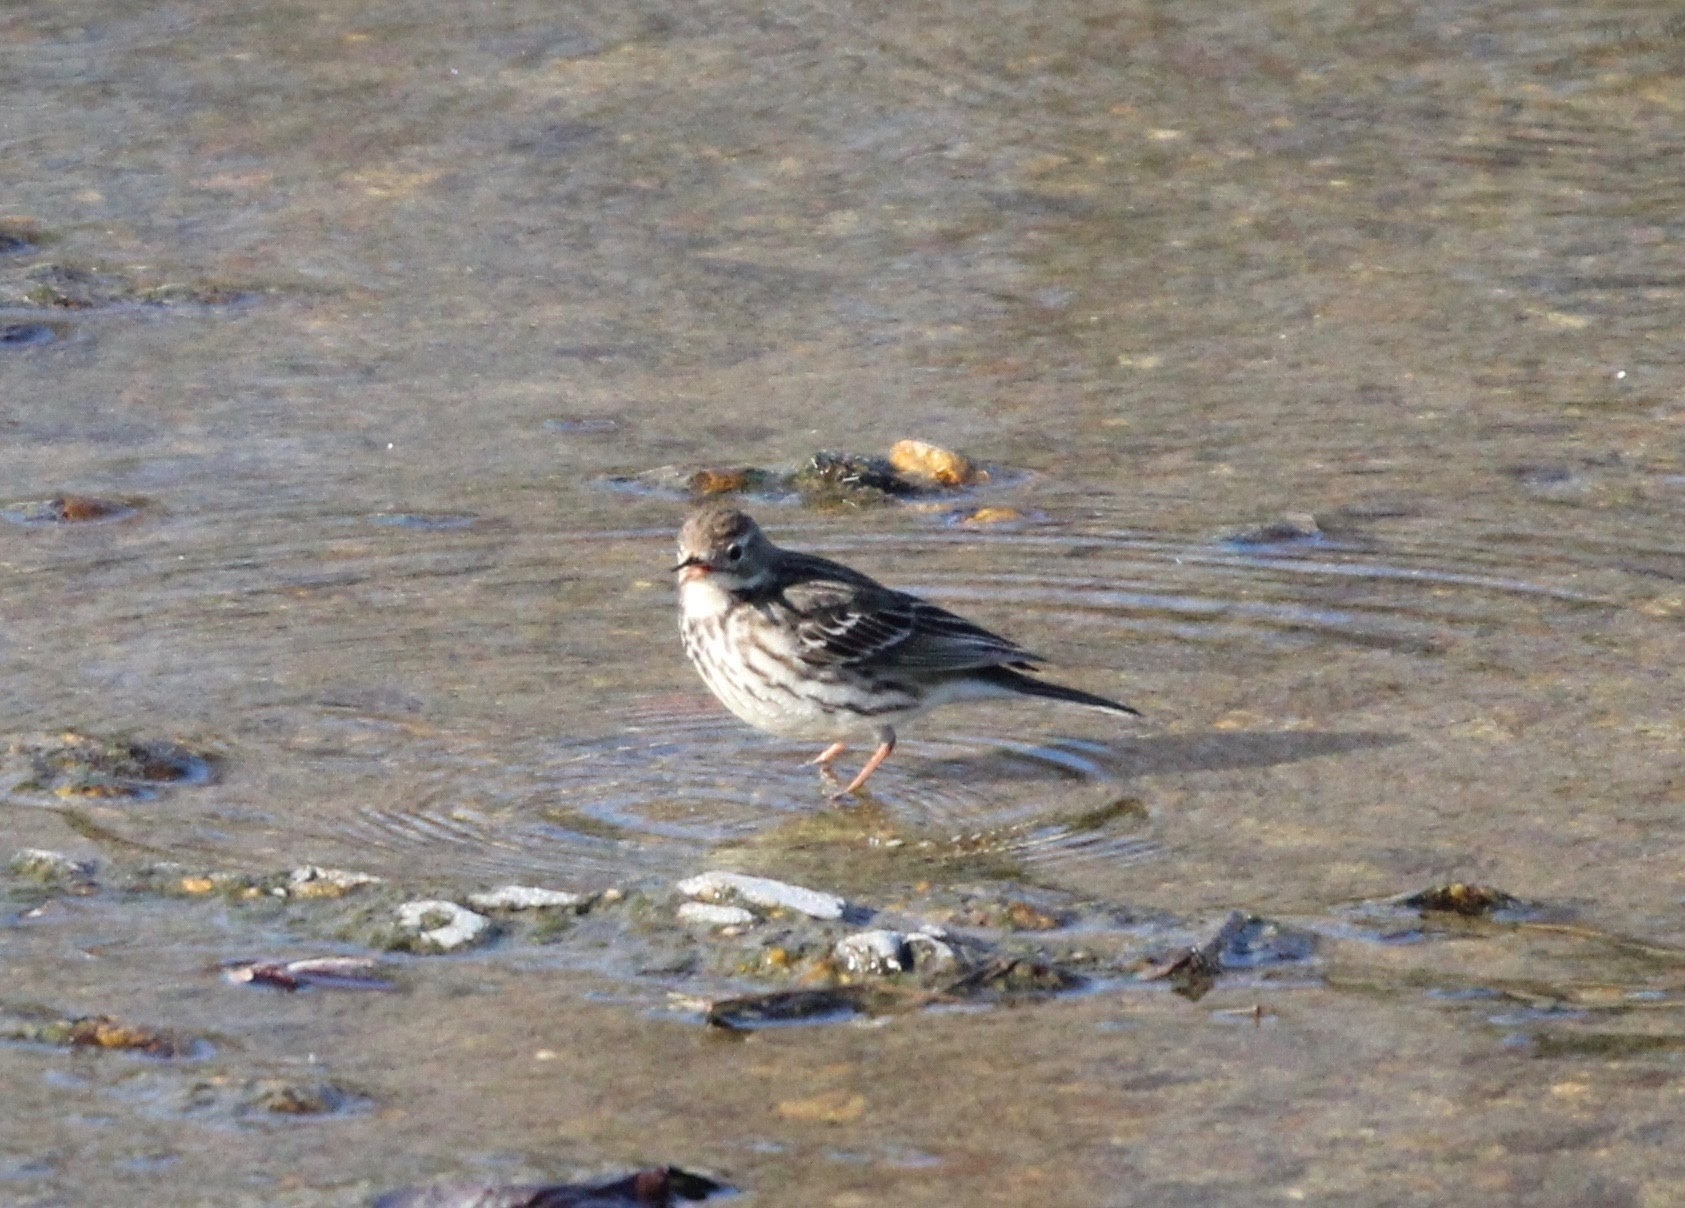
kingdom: Animalia
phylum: Chordata
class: Aves
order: Passeriformes
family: Motacillidae
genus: Anthus
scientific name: Anthus rubescens
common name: Buff-bellied pipit
